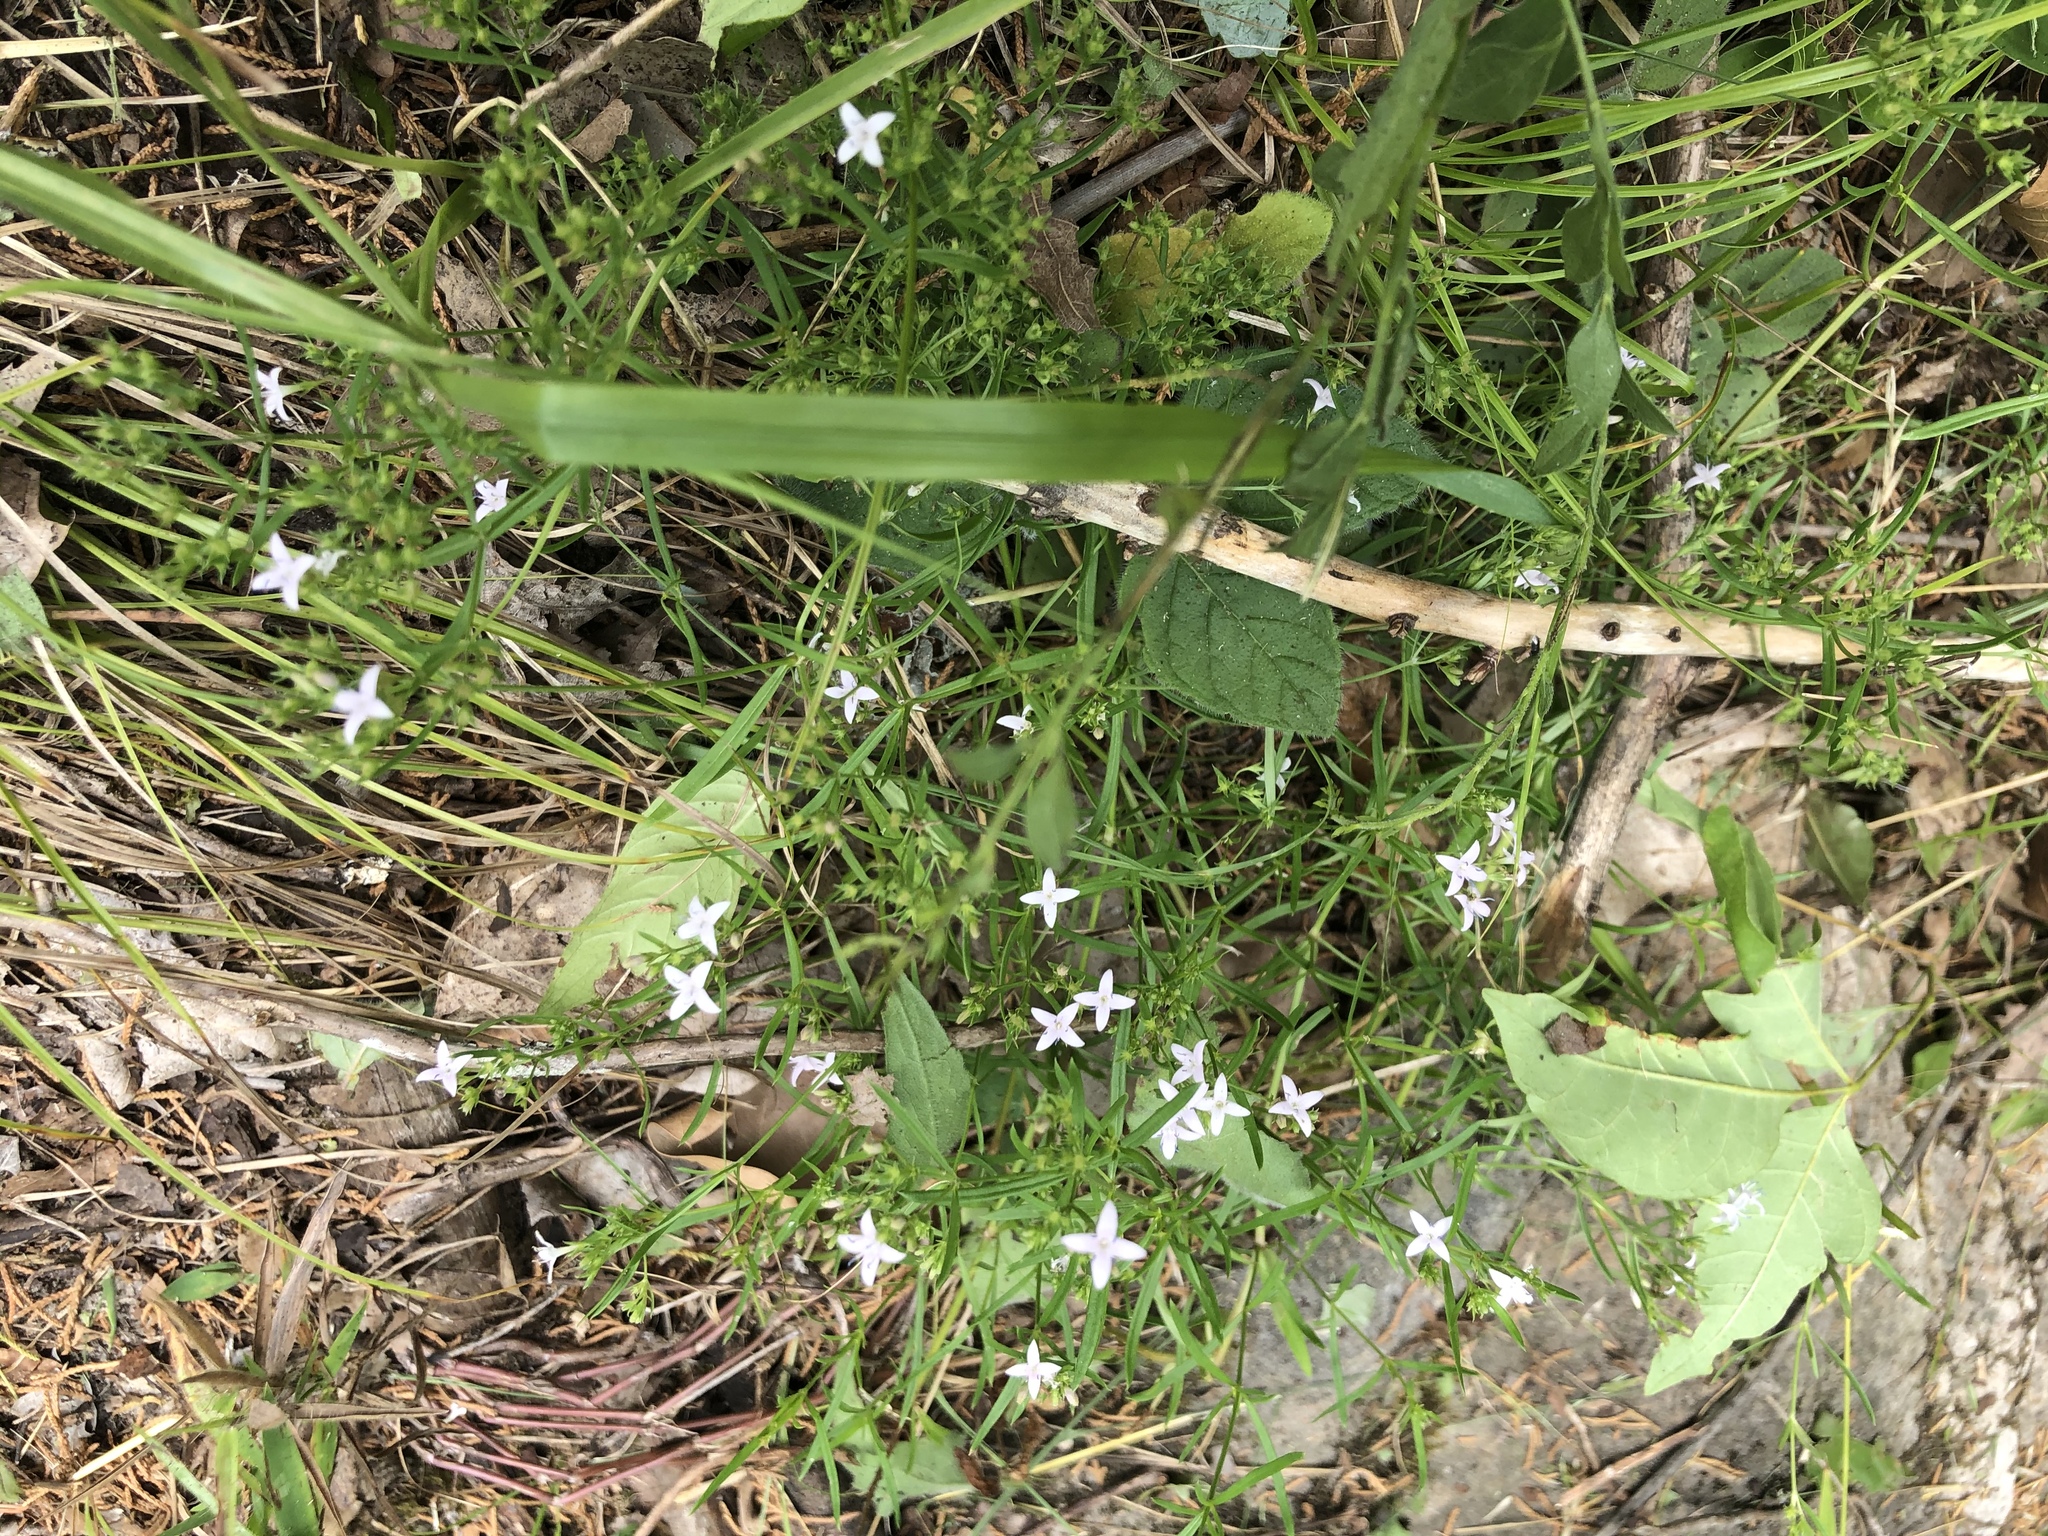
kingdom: Plantae
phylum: Tracheophyta
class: Magnoliopsida
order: Gentianales
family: Rubiaceae
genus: Stenaria
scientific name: Stenaria nigricans
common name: Diamondflowers
